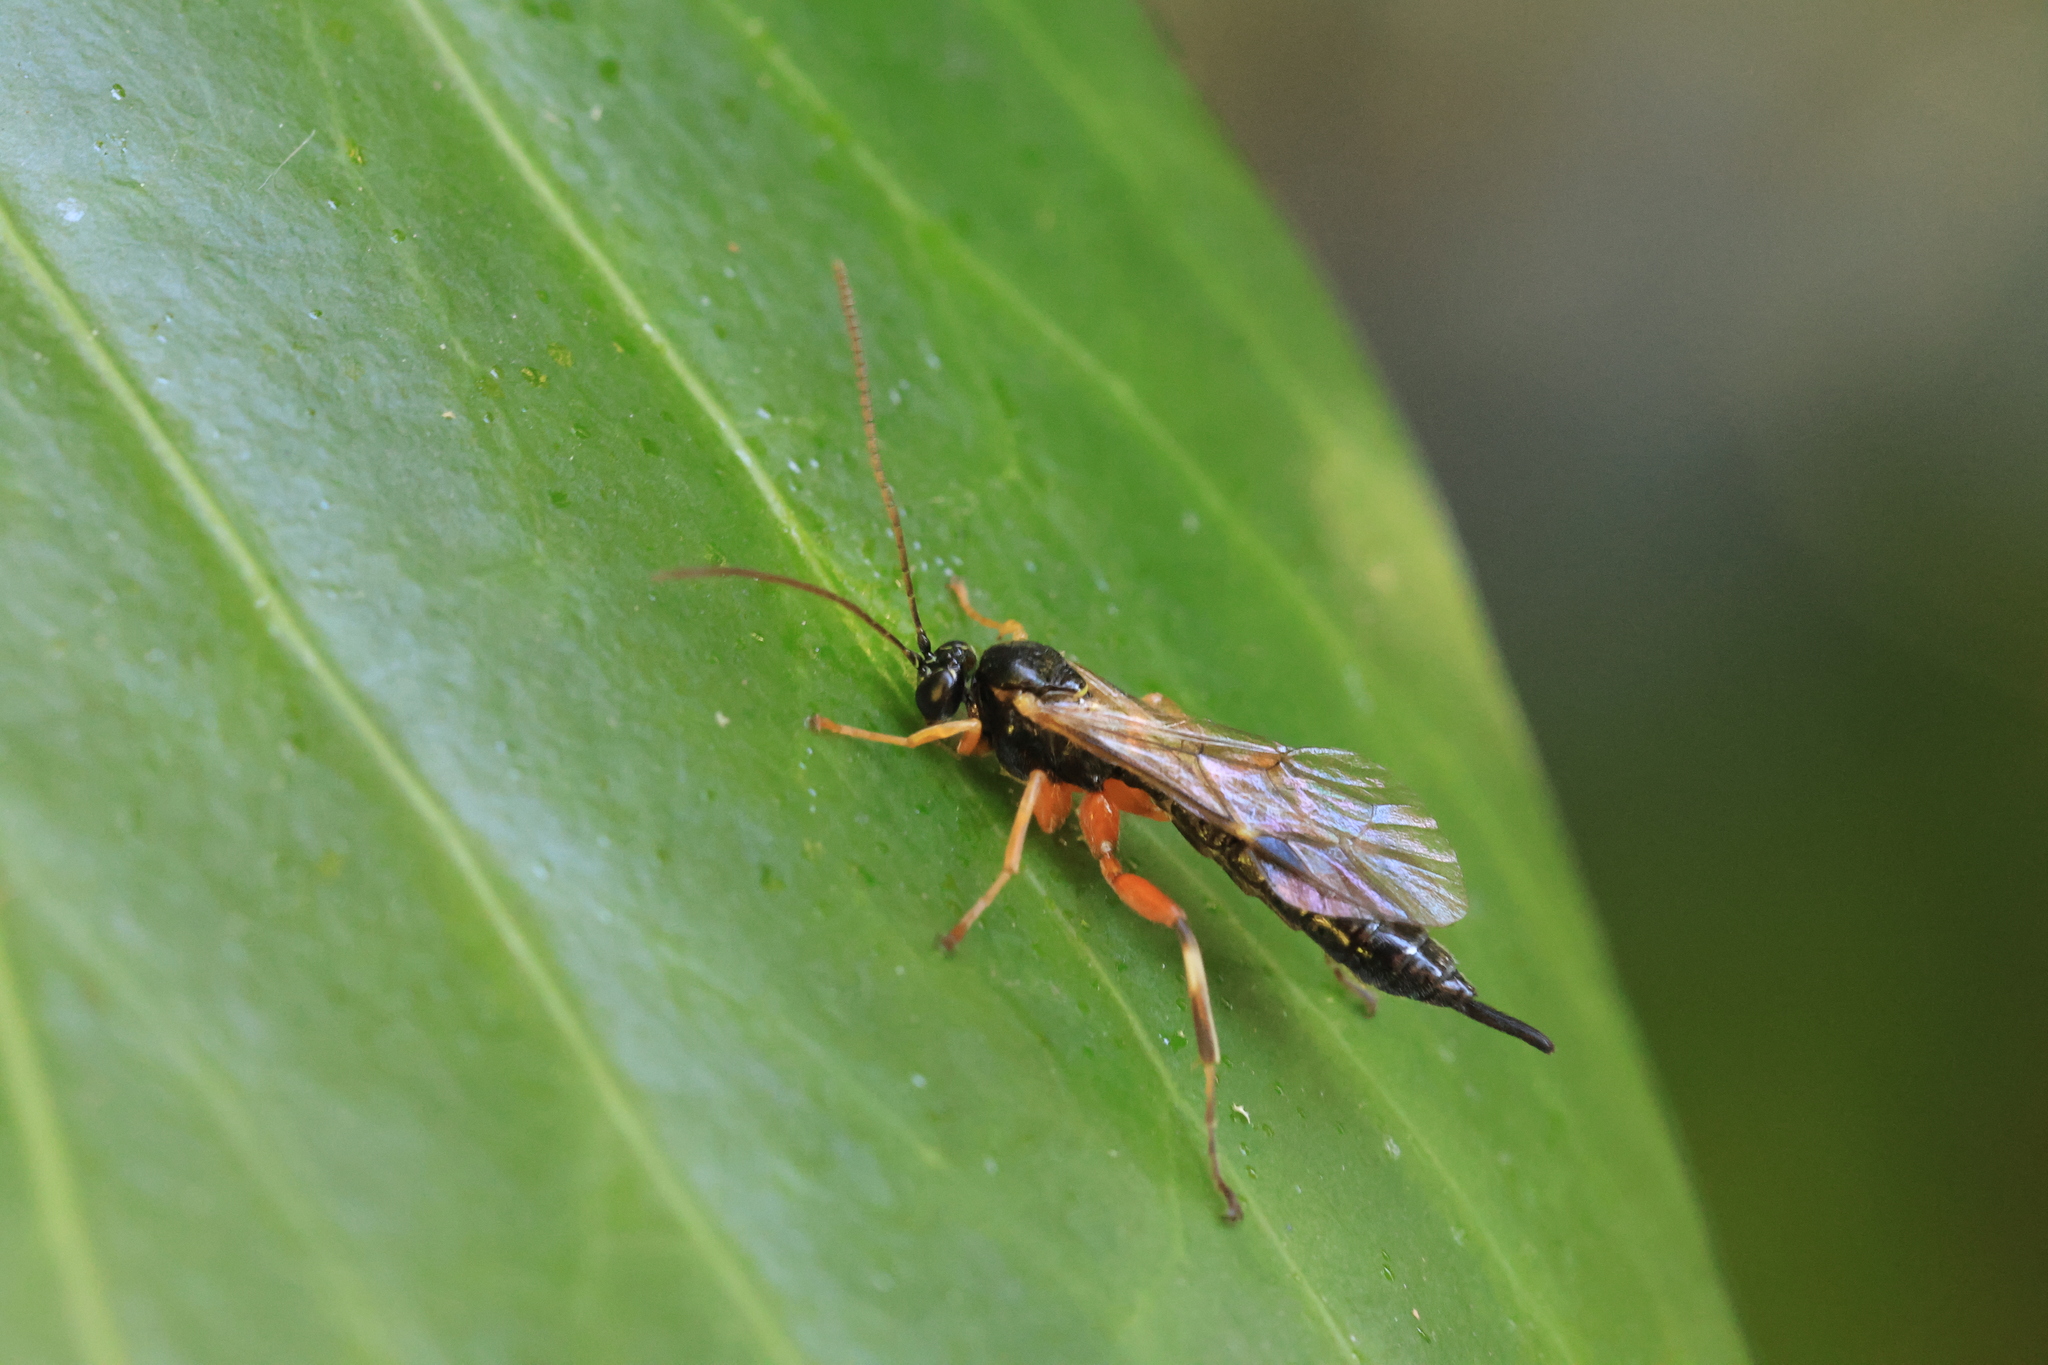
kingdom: Animalia
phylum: Arthropoda
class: Insecta
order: Hymenoptera
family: Ichneumonidae
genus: Apechthis
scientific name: Apechthis quadridentata
